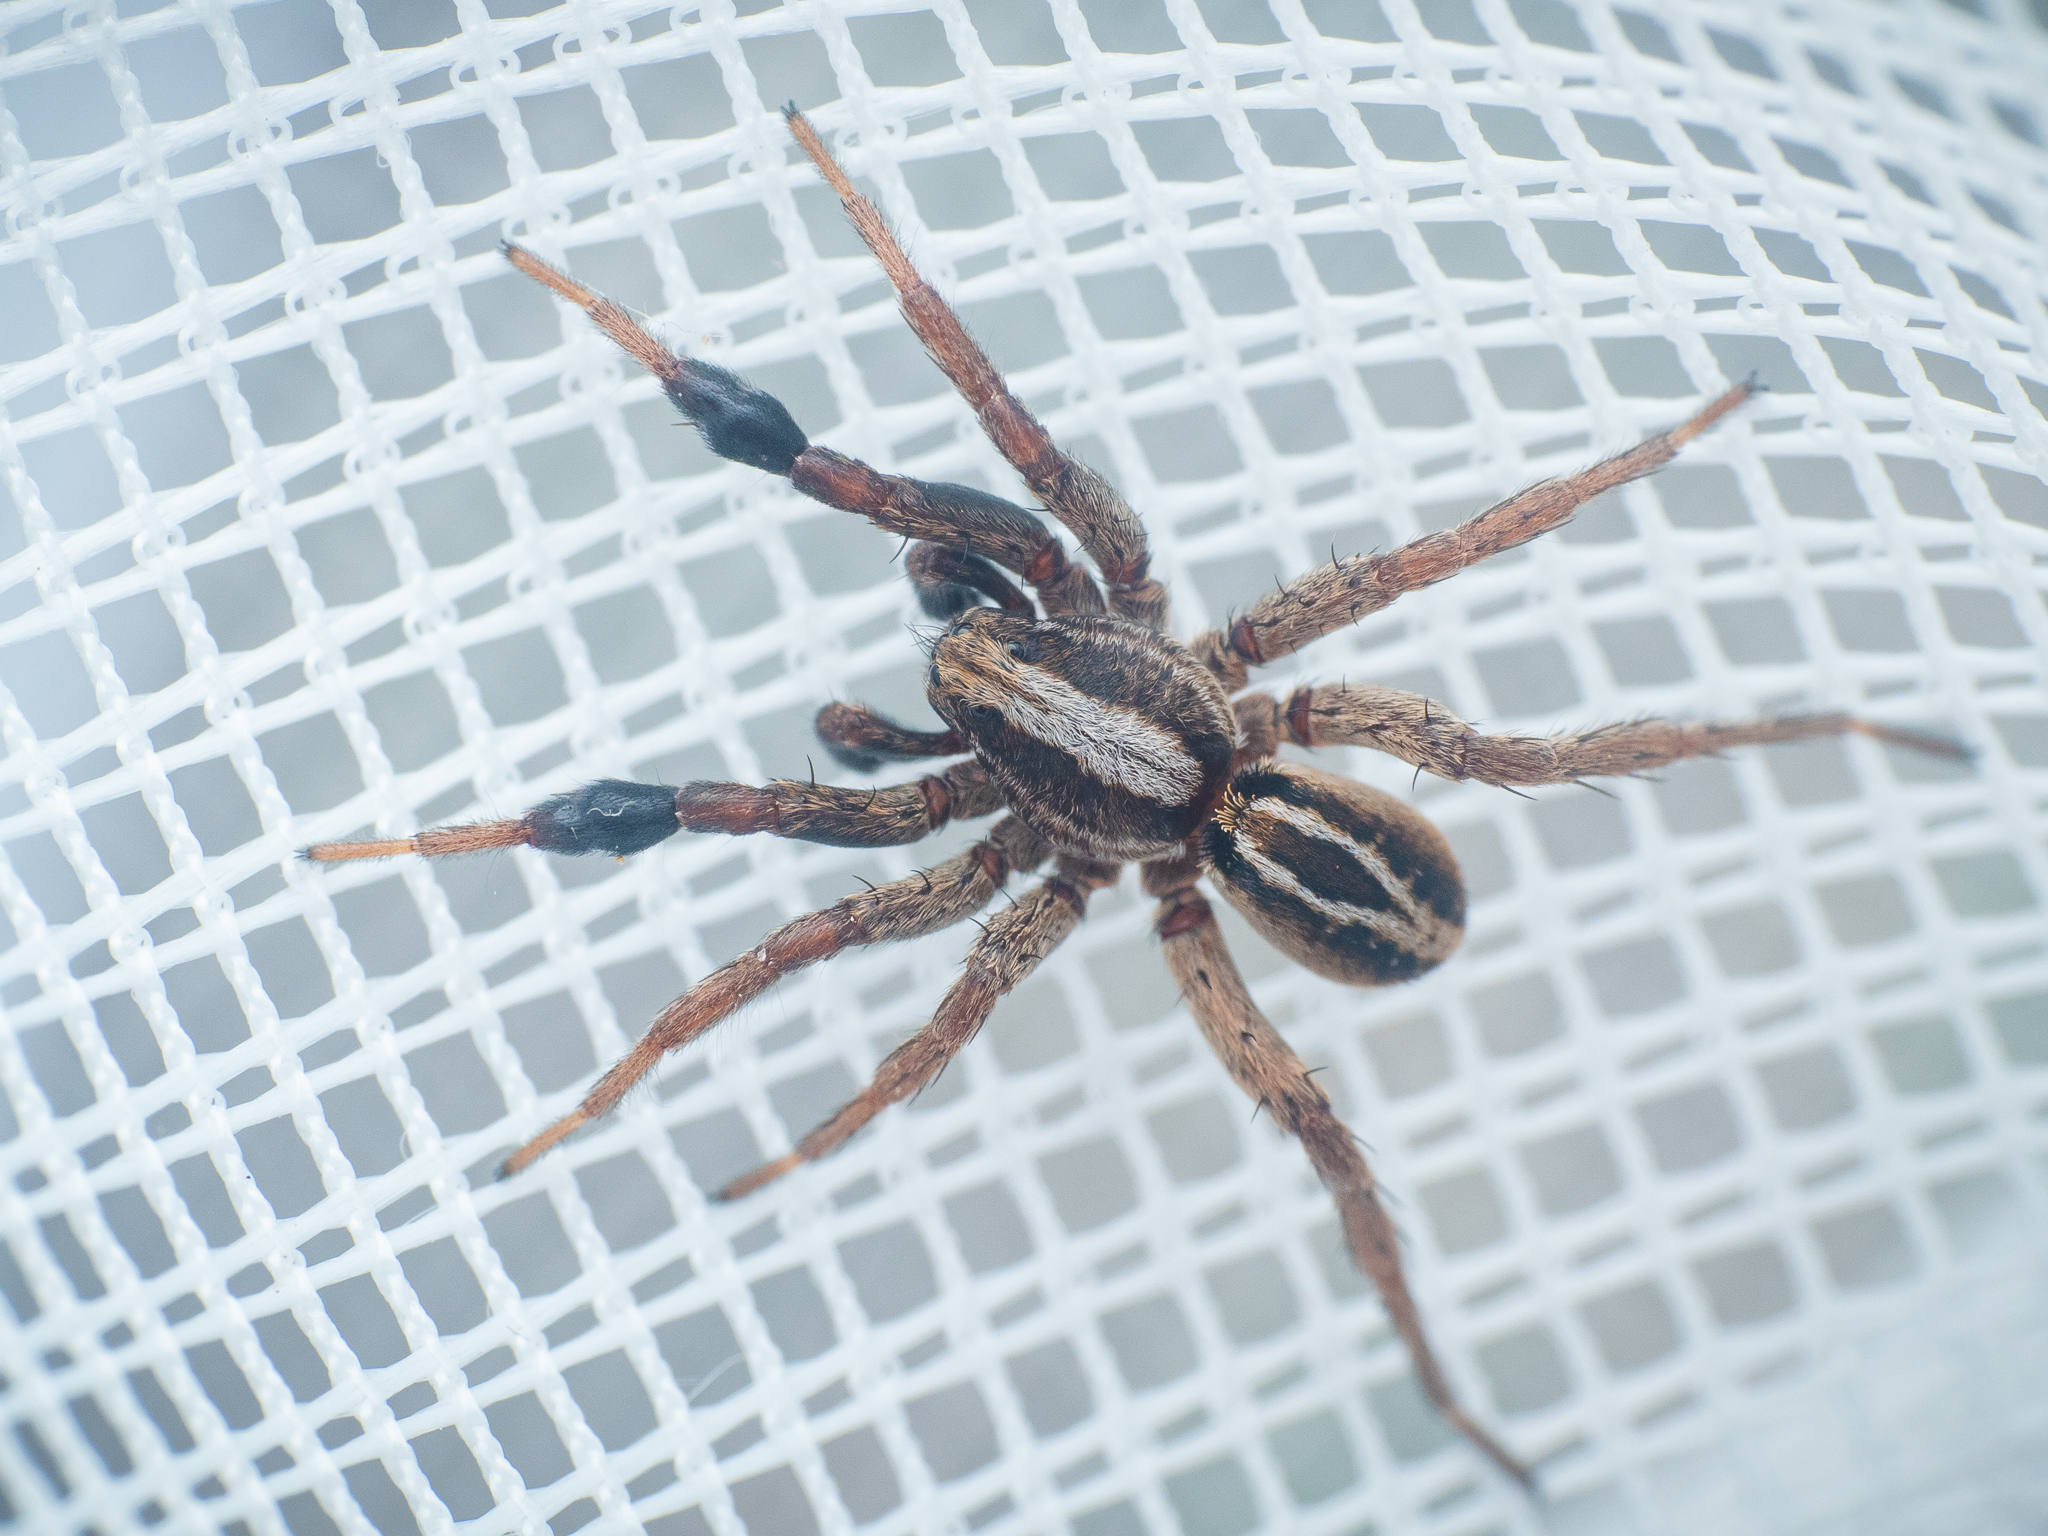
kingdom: Animalia
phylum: Arthropoda
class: Arachnida
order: Araneae
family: Lycosidae
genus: Alopecosa
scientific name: Alopecosa cuneata
